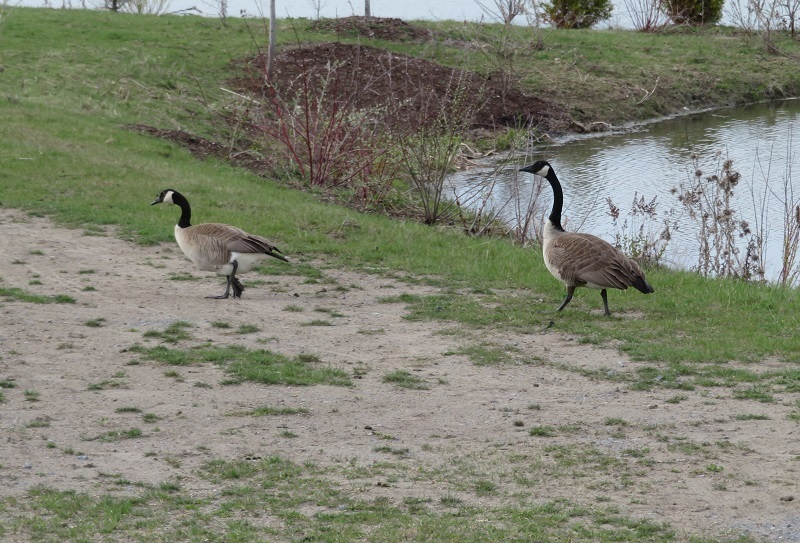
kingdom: Animalia
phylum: Chordata
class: Aves
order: Anseriformes
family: Anatidae
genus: Branta
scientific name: Branta canadensis
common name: Canada goose
